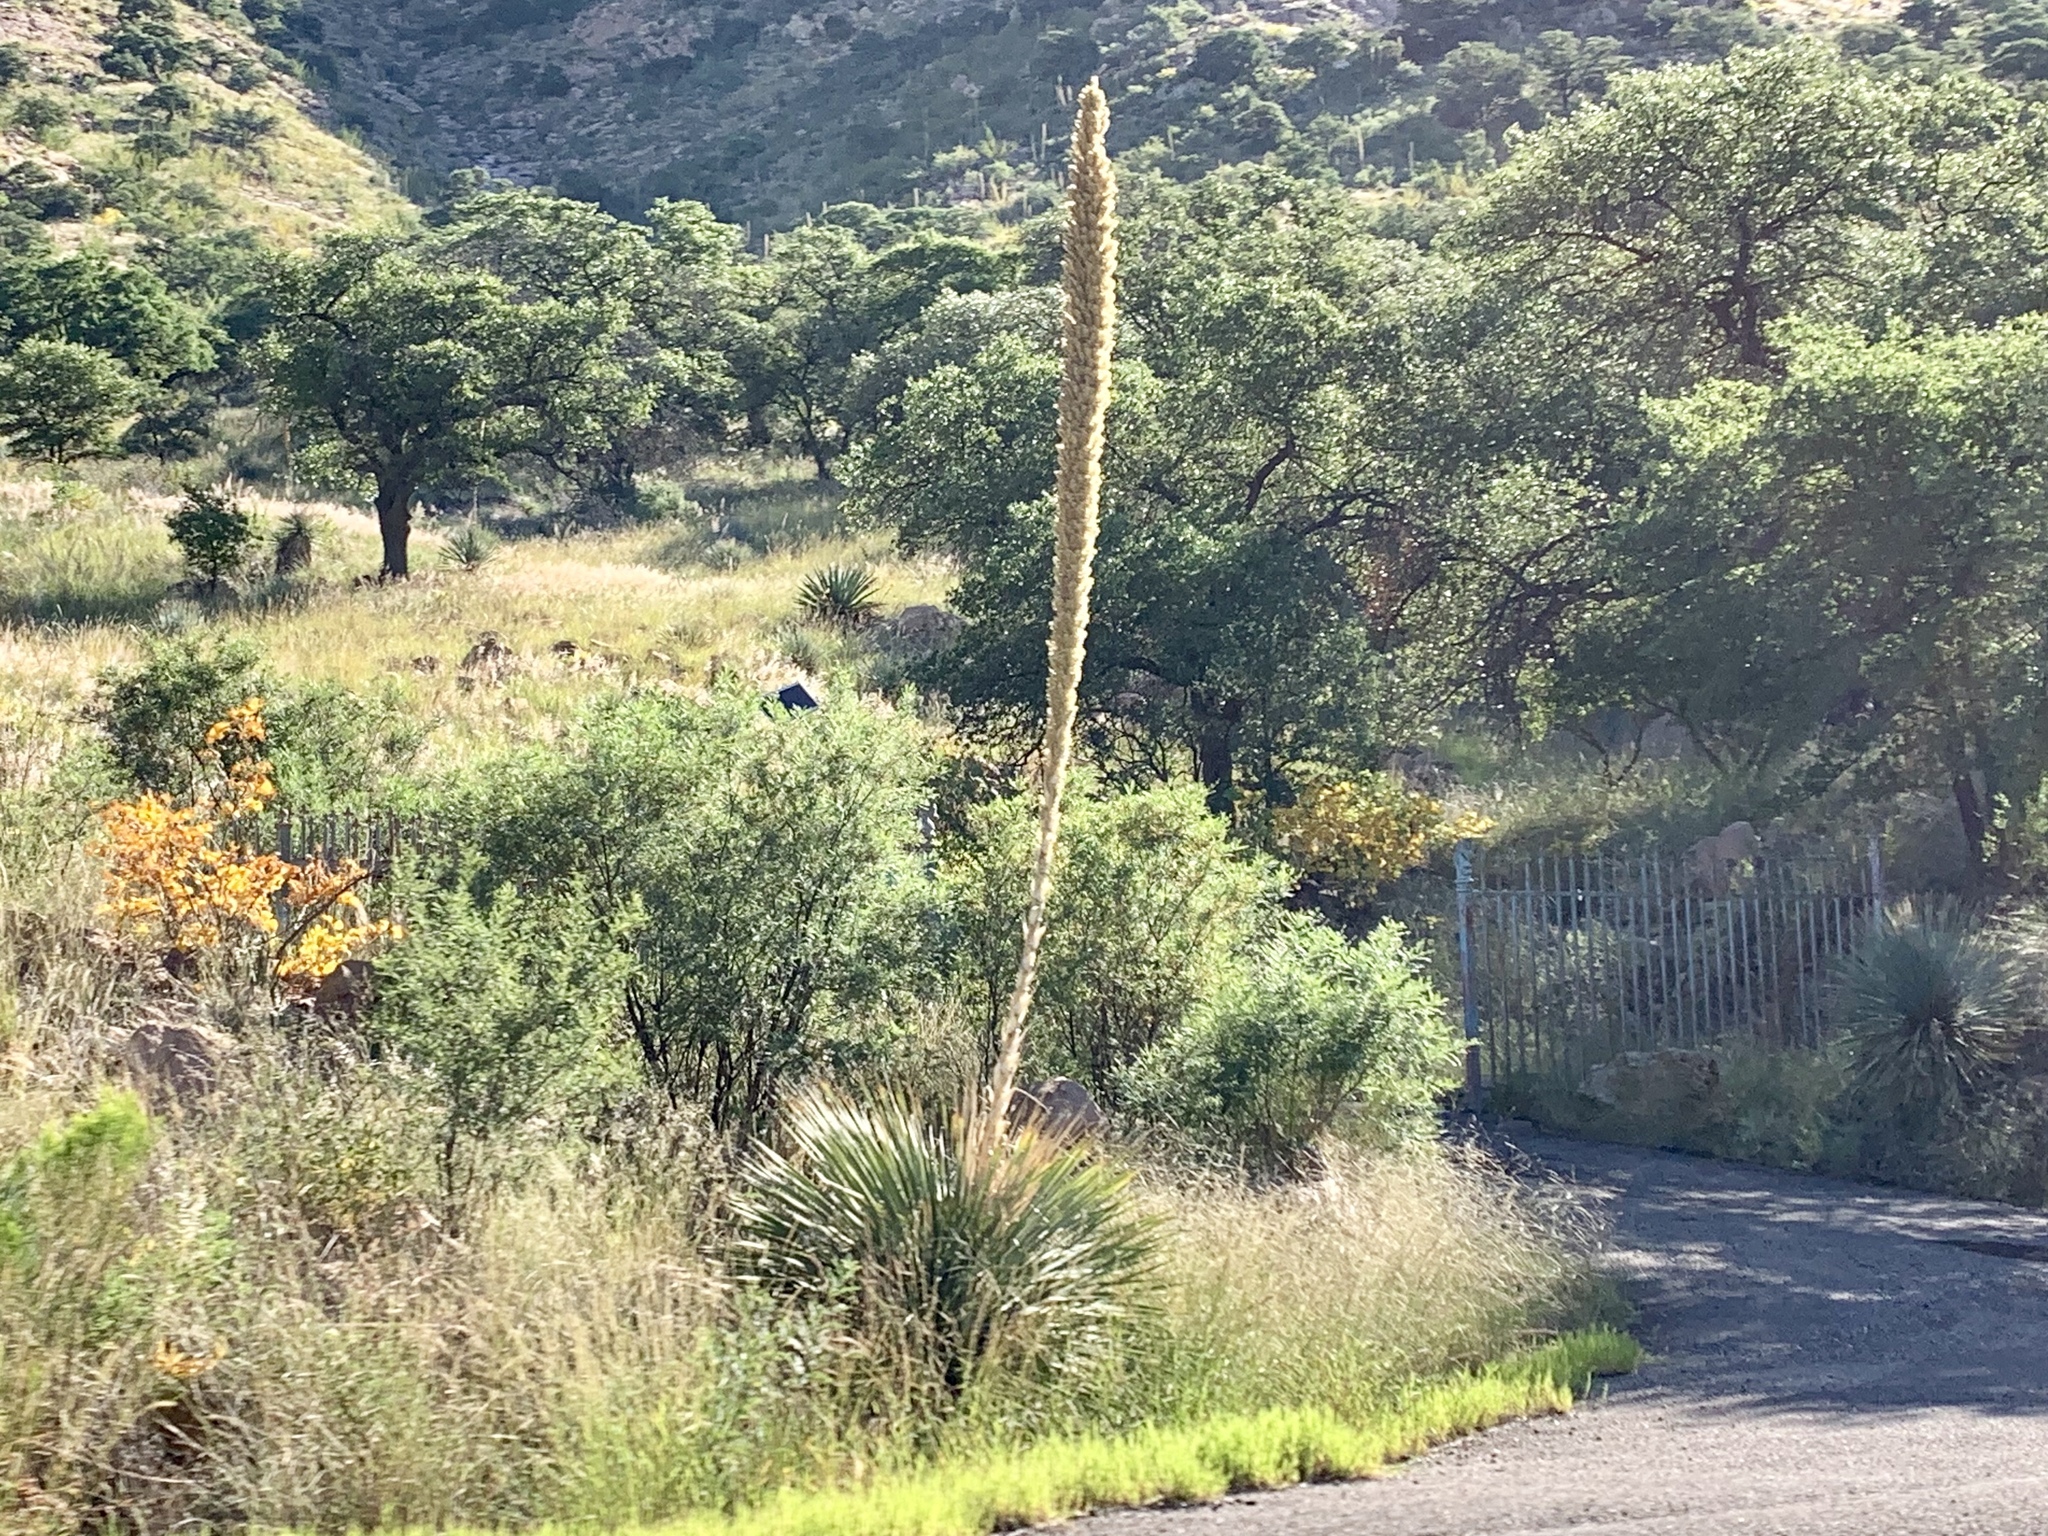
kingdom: Plantae
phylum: Tracheophyta
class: Liliopsida
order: Asparagales
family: Asparagaceae
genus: Dasylirion
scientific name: Dasylirion wheeleri
